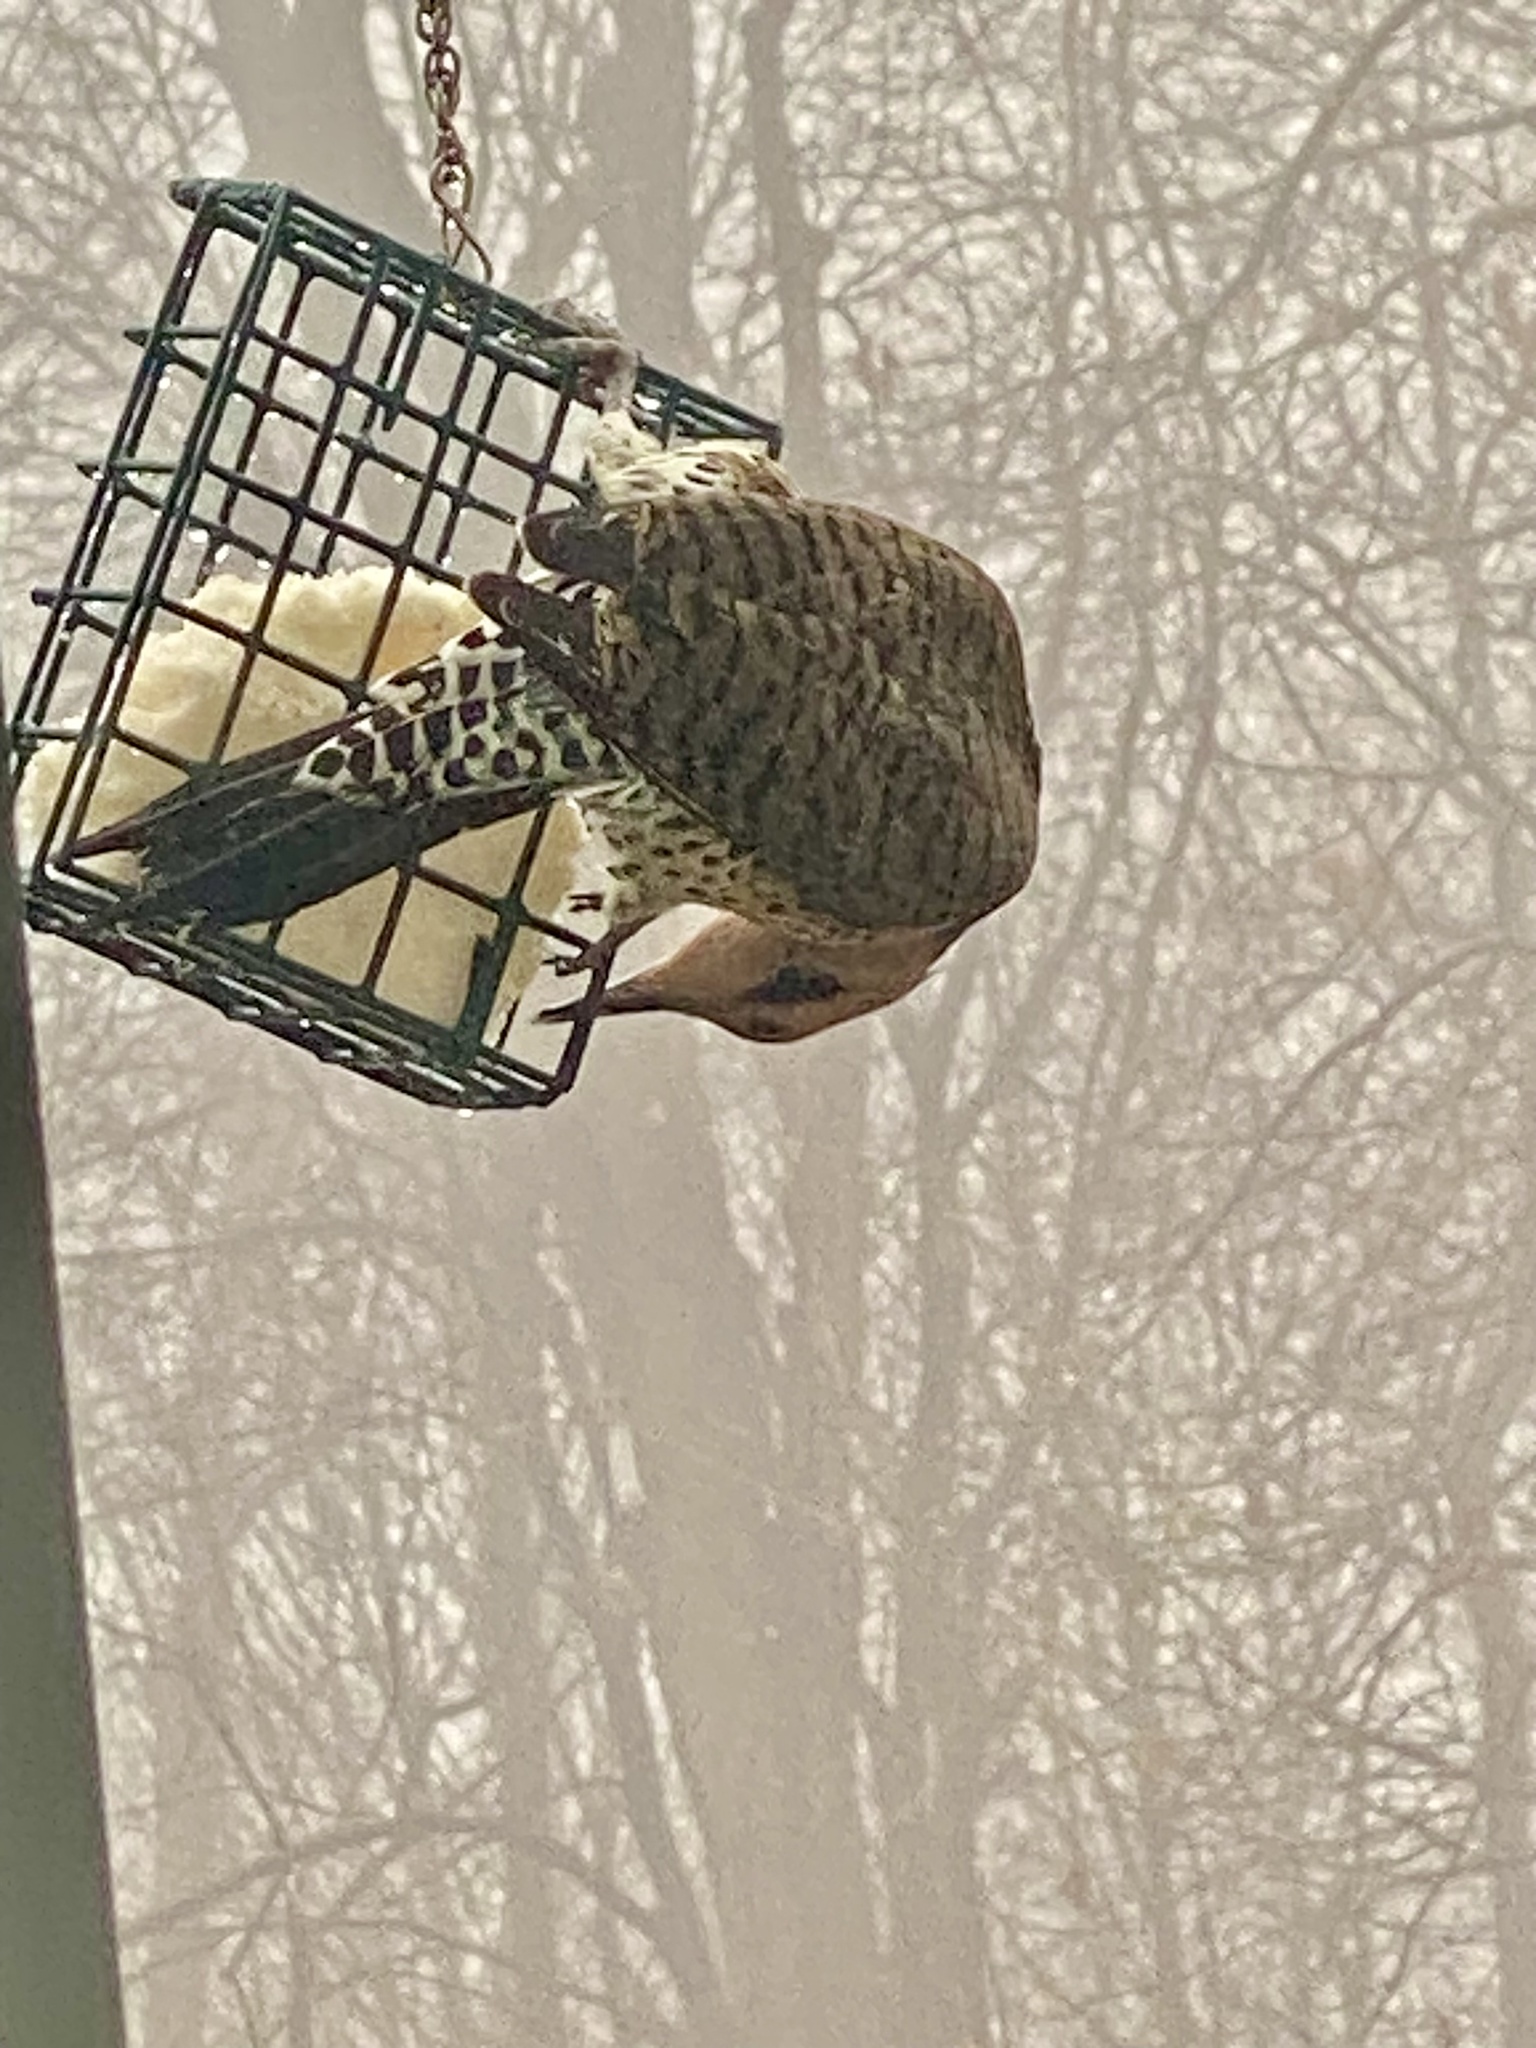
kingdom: Animalia
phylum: Chordata
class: Aves
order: Piciformes
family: Picidae
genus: Colaptes
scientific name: Colaptes auratus
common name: Northern flicker
